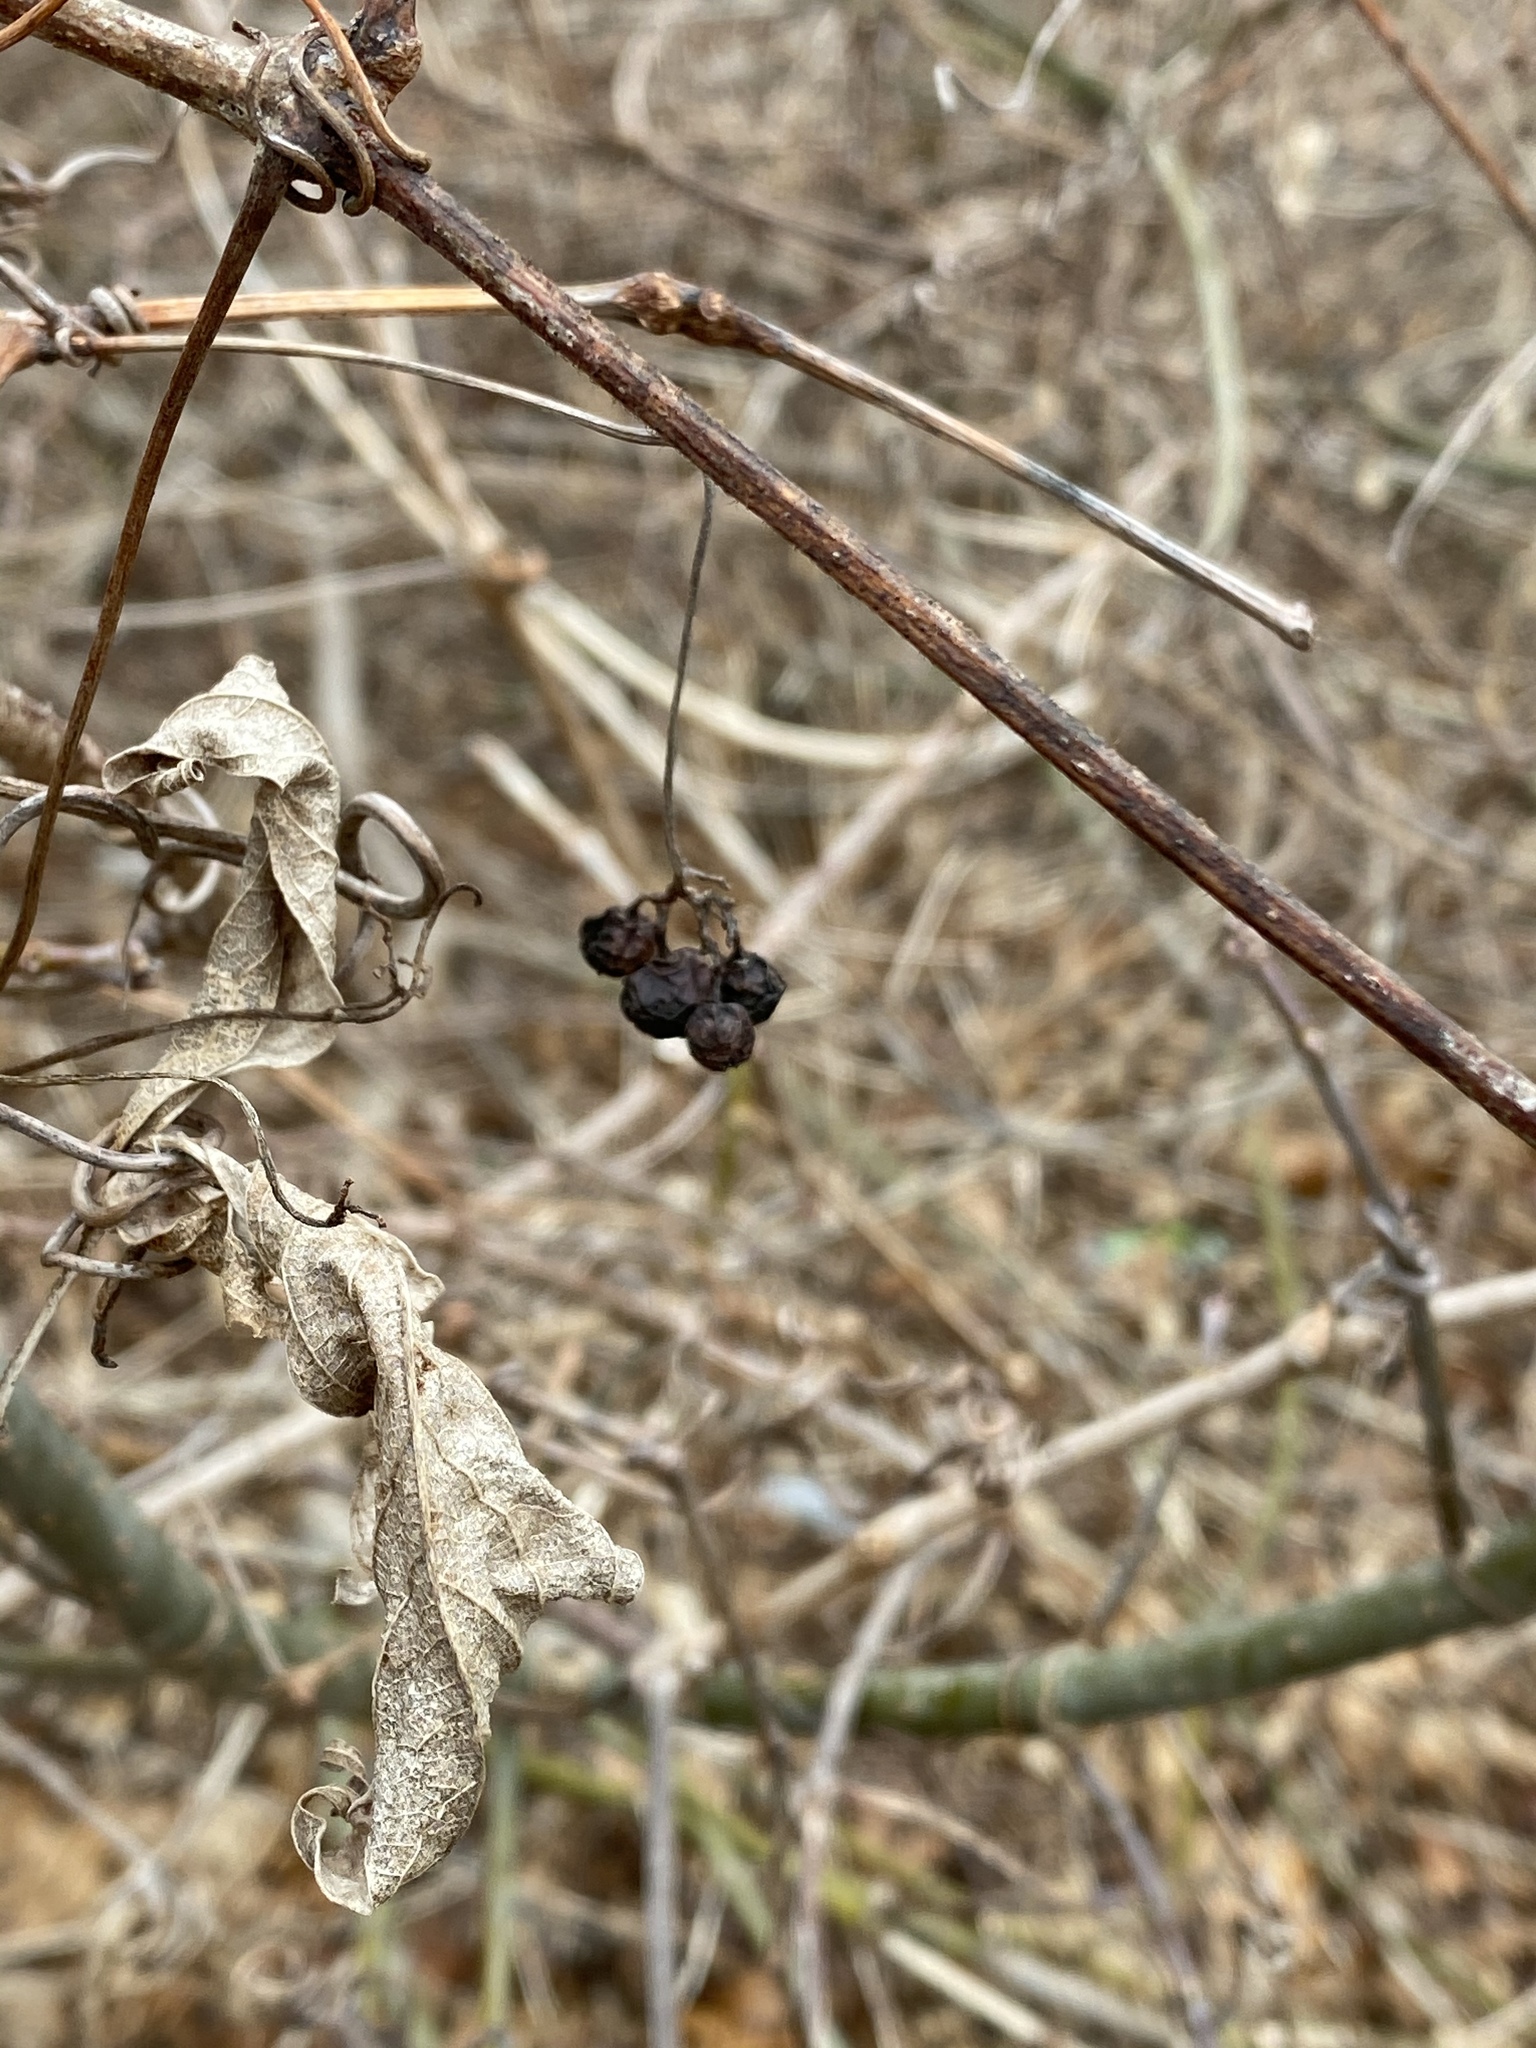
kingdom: Plantae
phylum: Tracheophyta
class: Magnoliopsida
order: Vitales
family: Vitaceae
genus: Ampelopsis
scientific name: Ampelopsis glandulosa
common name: Amur peppervine
